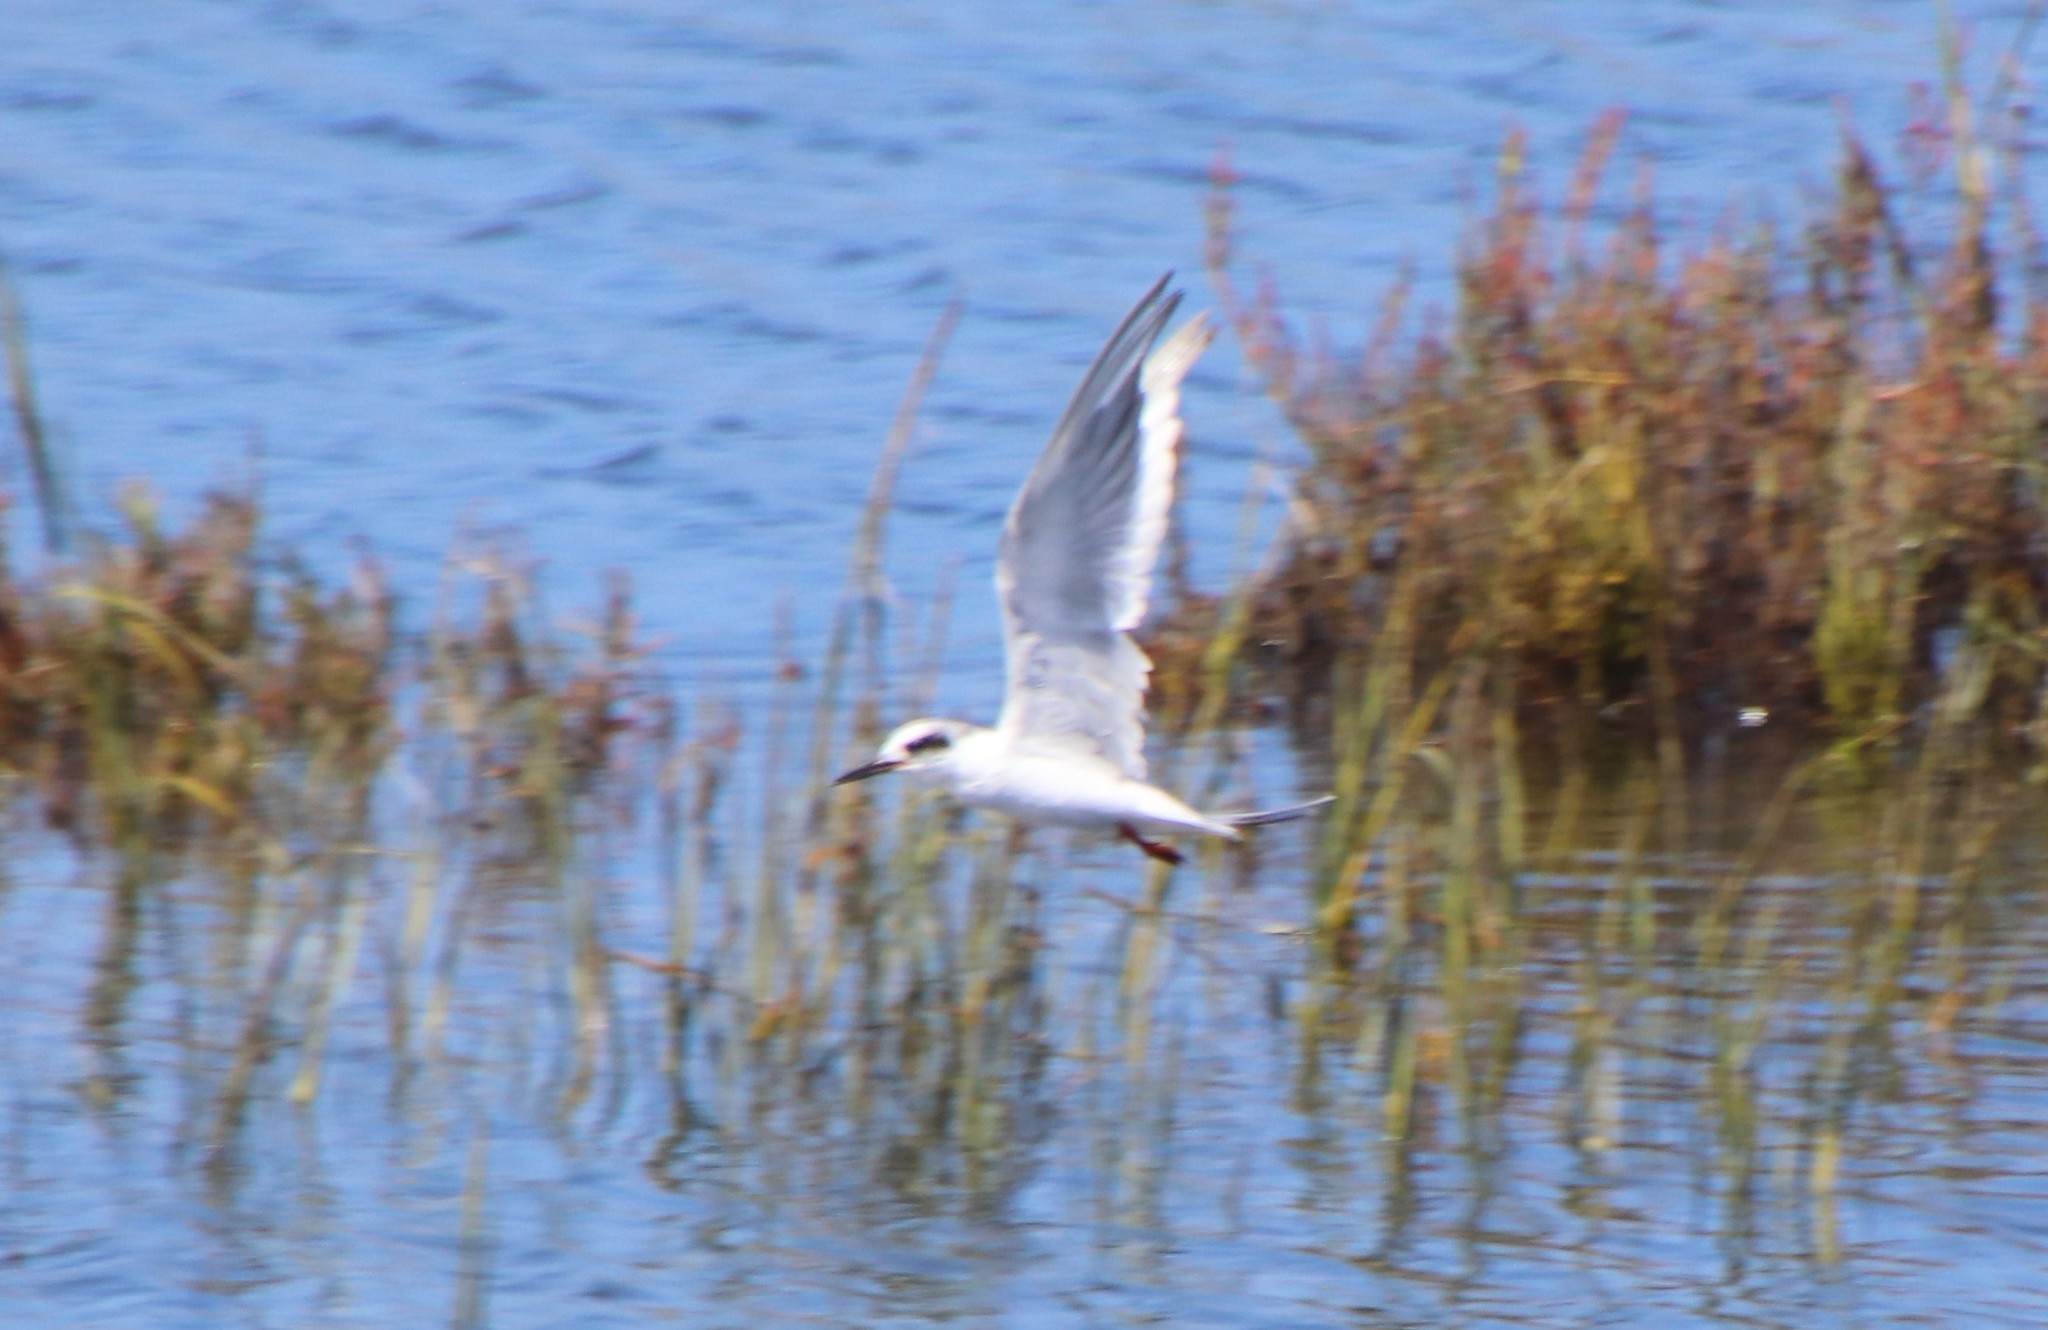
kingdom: Animalia
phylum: Chordata
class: Aves
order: Charadriiformes
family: Laridae
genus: Sterna
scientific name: Sterna forsteri
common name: Forster's tern
